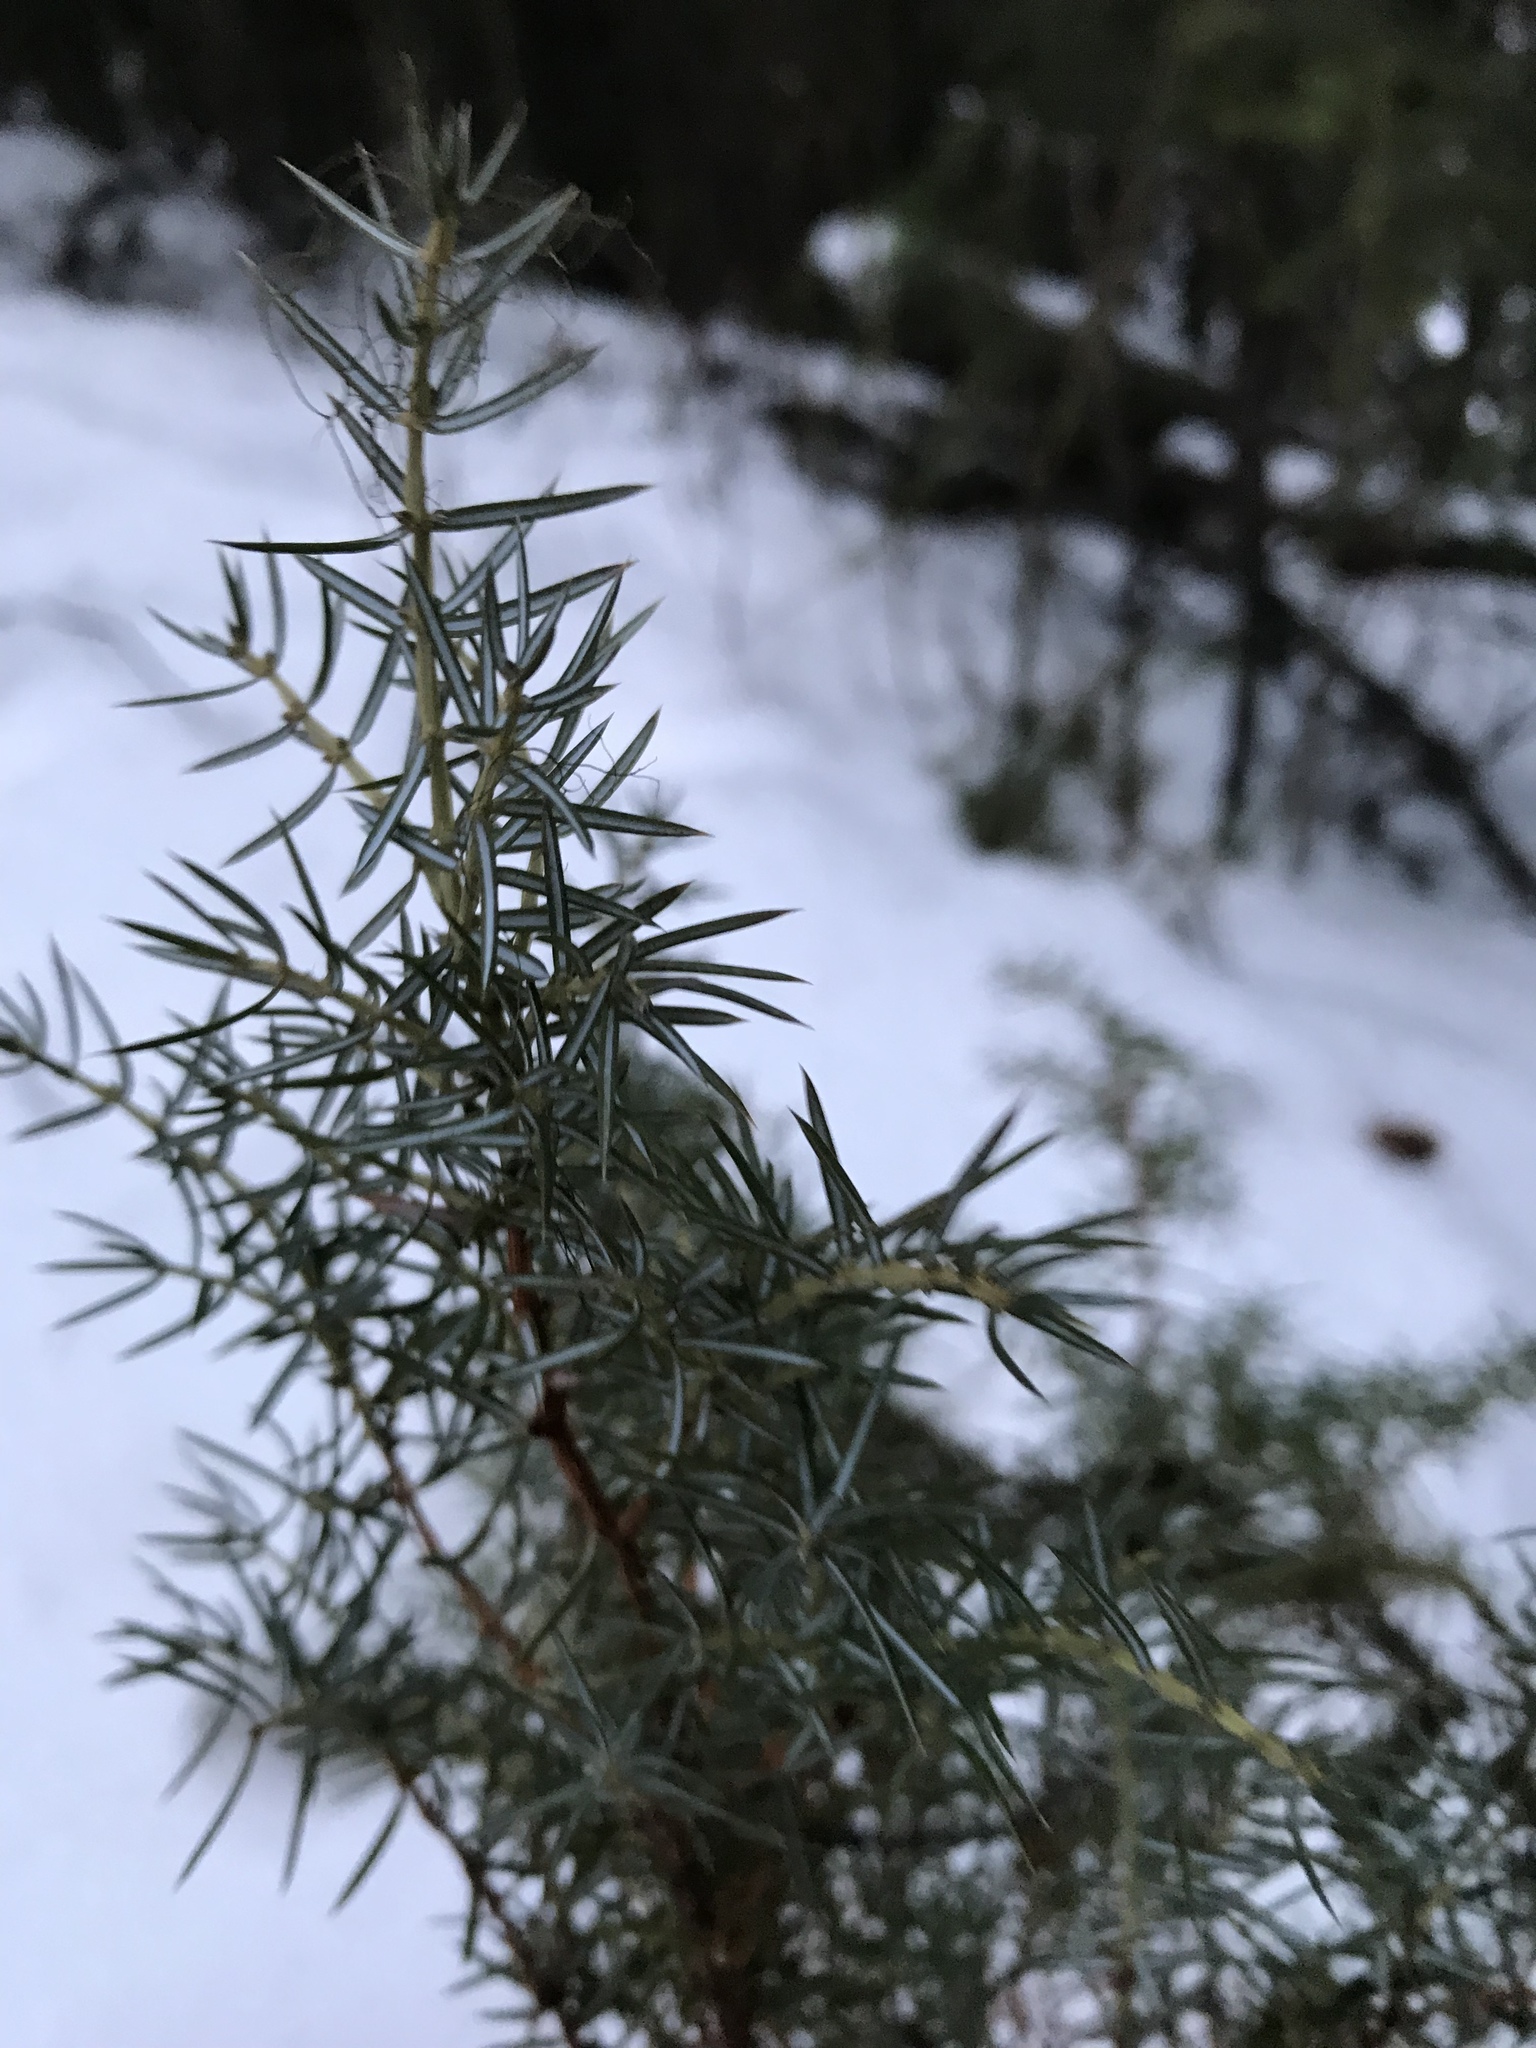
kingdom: Plantae
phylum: Tracheophyta
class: Pinopsida
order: Pinales
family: Cupressaceae
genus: Juniperus
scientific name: Juniperus communis
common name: Common juniper
